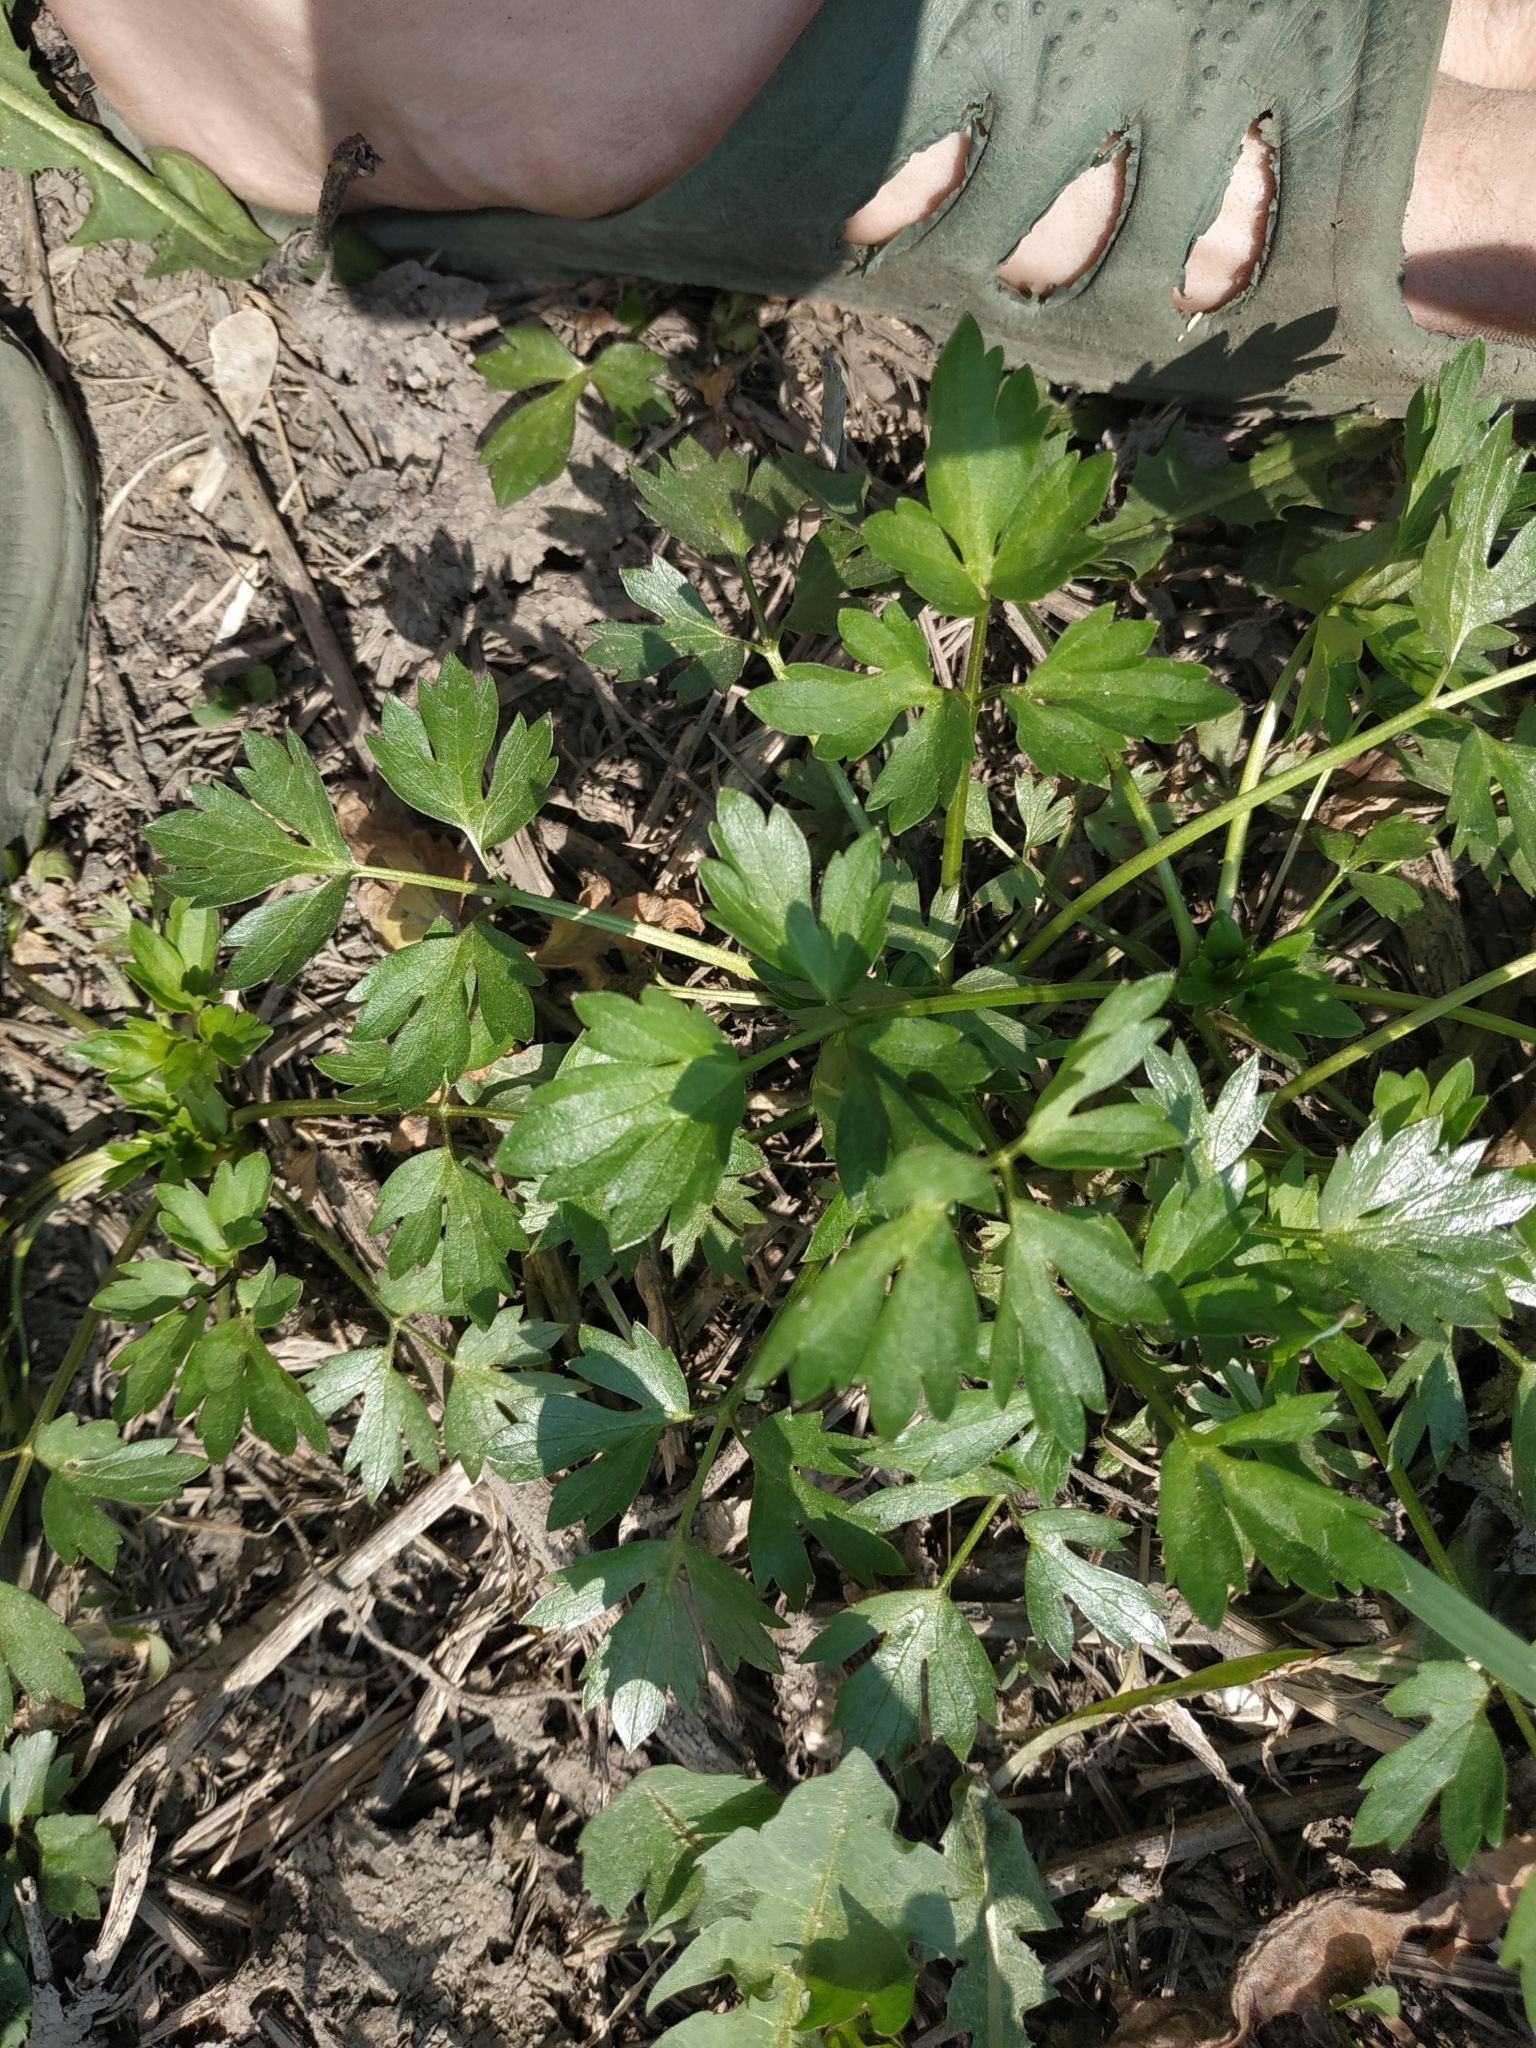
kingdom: Plantae
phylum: Tracheophyta
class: Magnoliopsida
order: Ranunculales
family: Ranunculaceae
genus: Ranunculus
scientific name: Ranunculus repens
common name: Creeping buttercup
